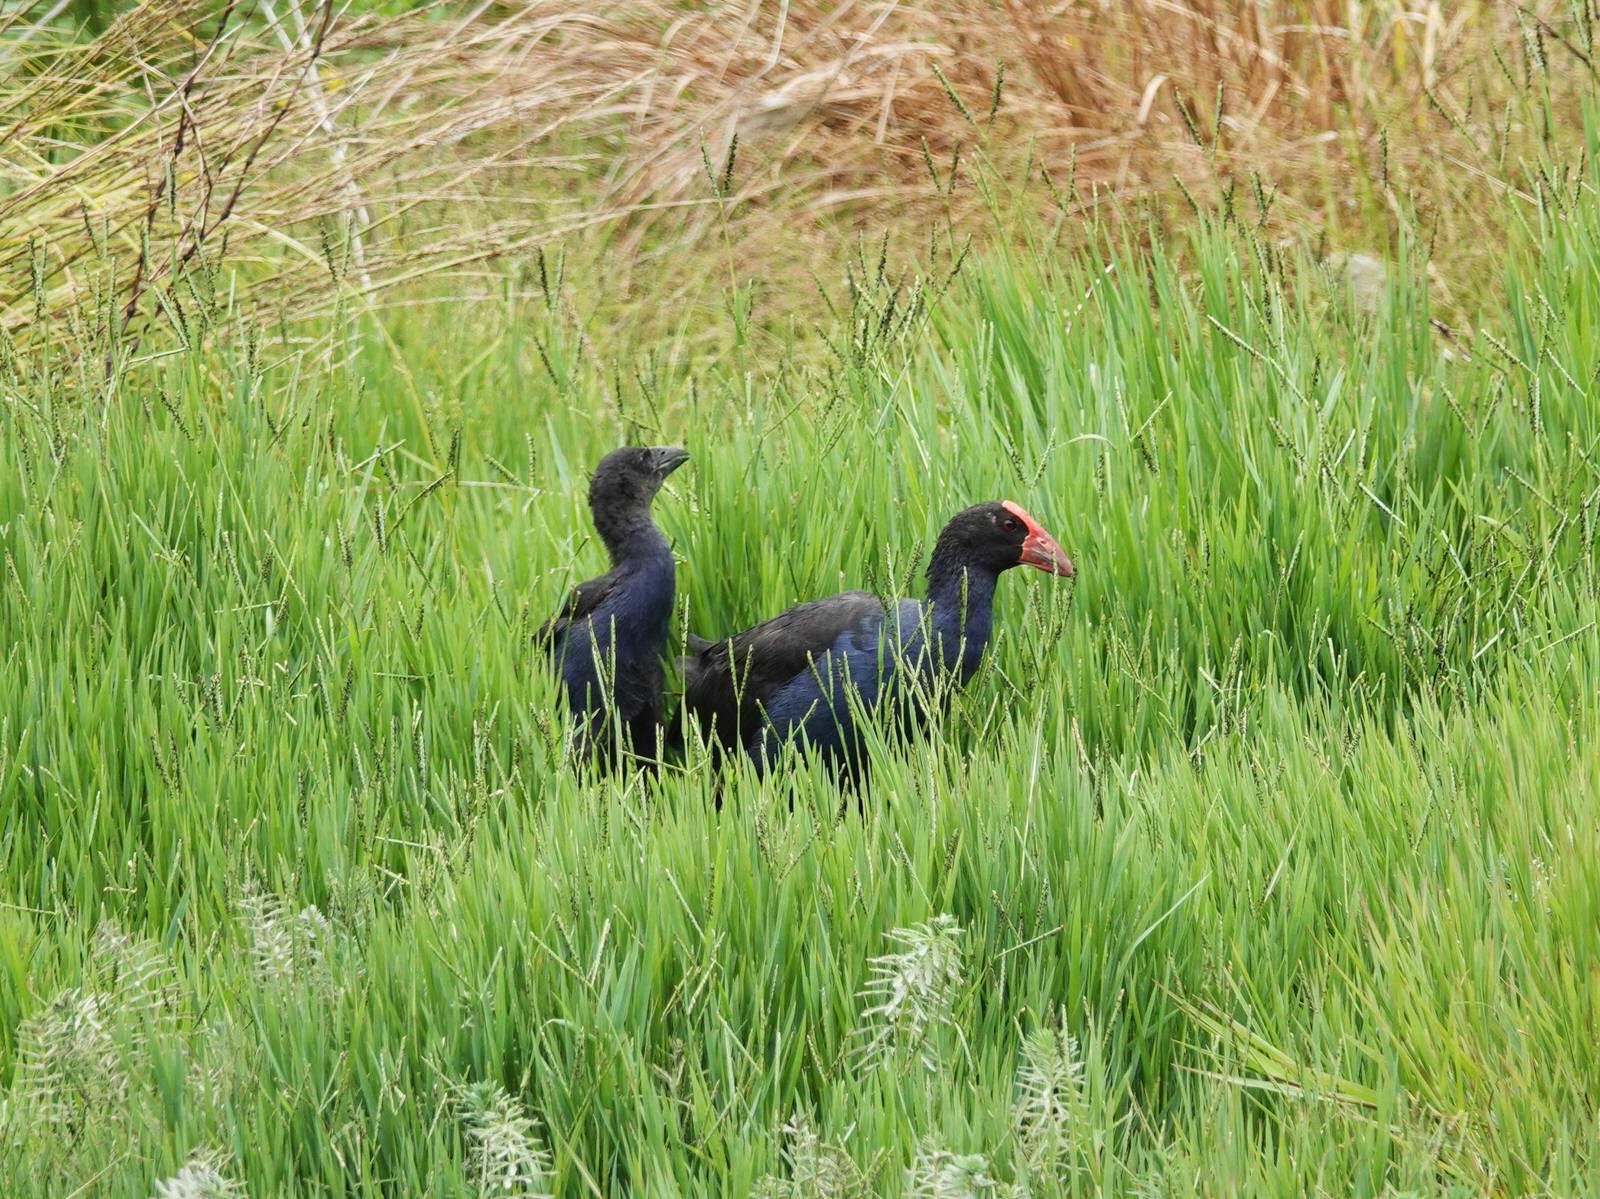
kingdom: Animalia
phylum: Chordata
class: Aves
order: Gruiformes
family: Rallidae
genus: Porphyrio
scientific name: Porphyrio melanotus
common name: Australasian swamphen
